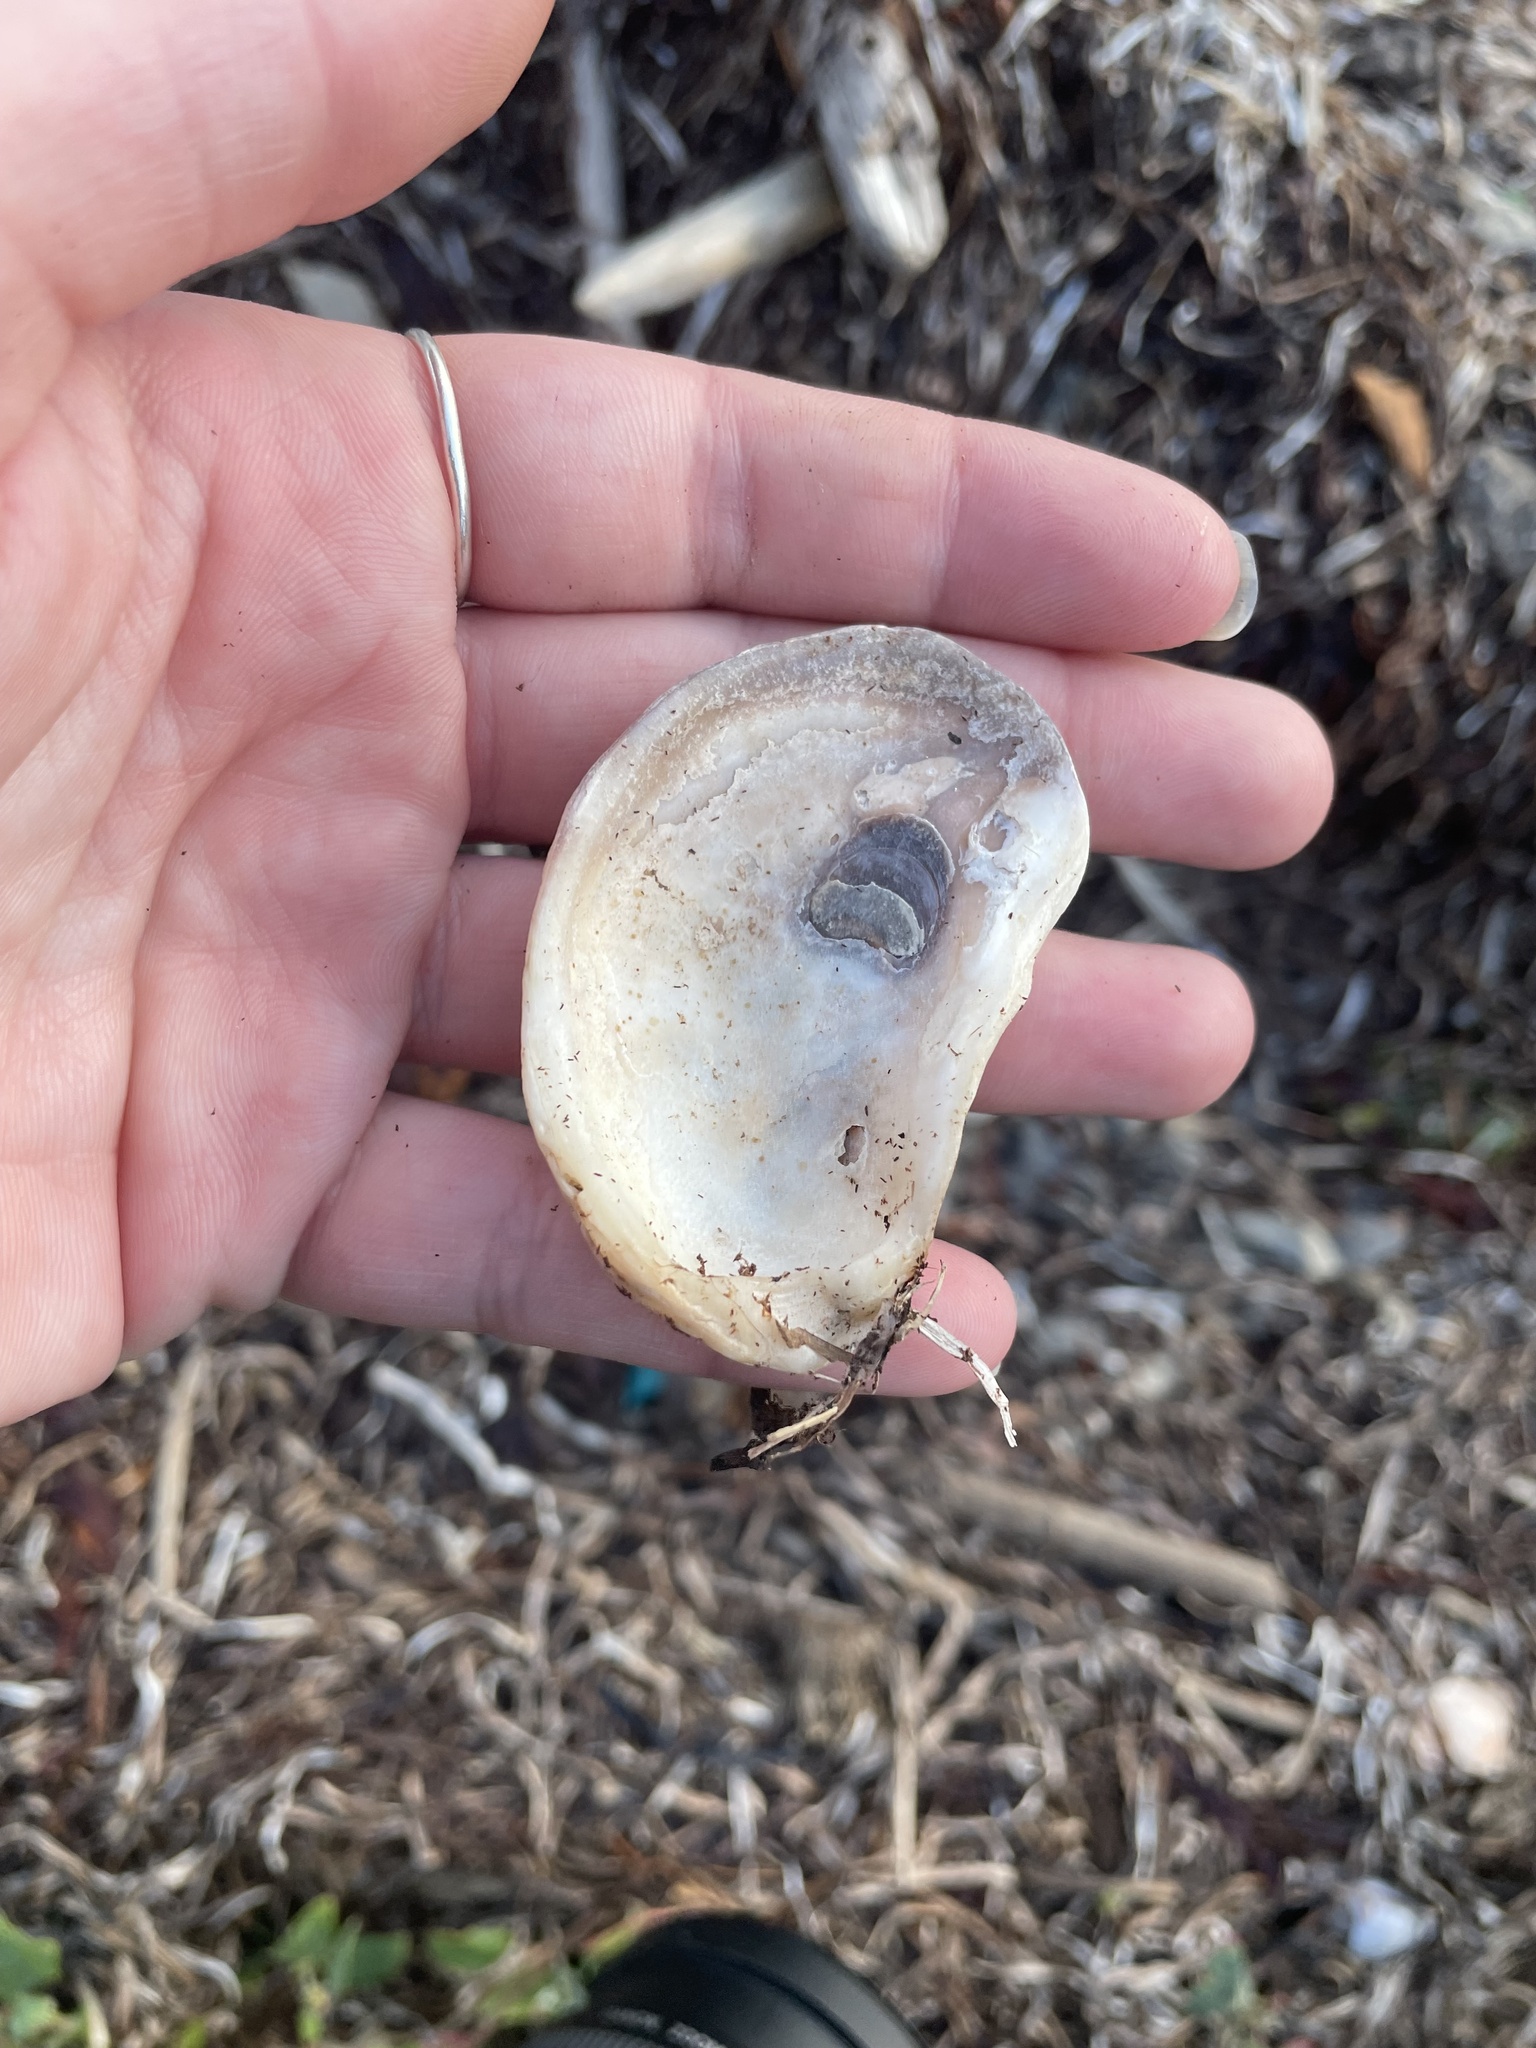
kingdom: Animalia
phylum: Mollusca
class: Bivalvia
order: Ostreida
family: Ostreidae
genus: Crassostrea
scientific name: Crassostrea virginica
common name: American oyster
